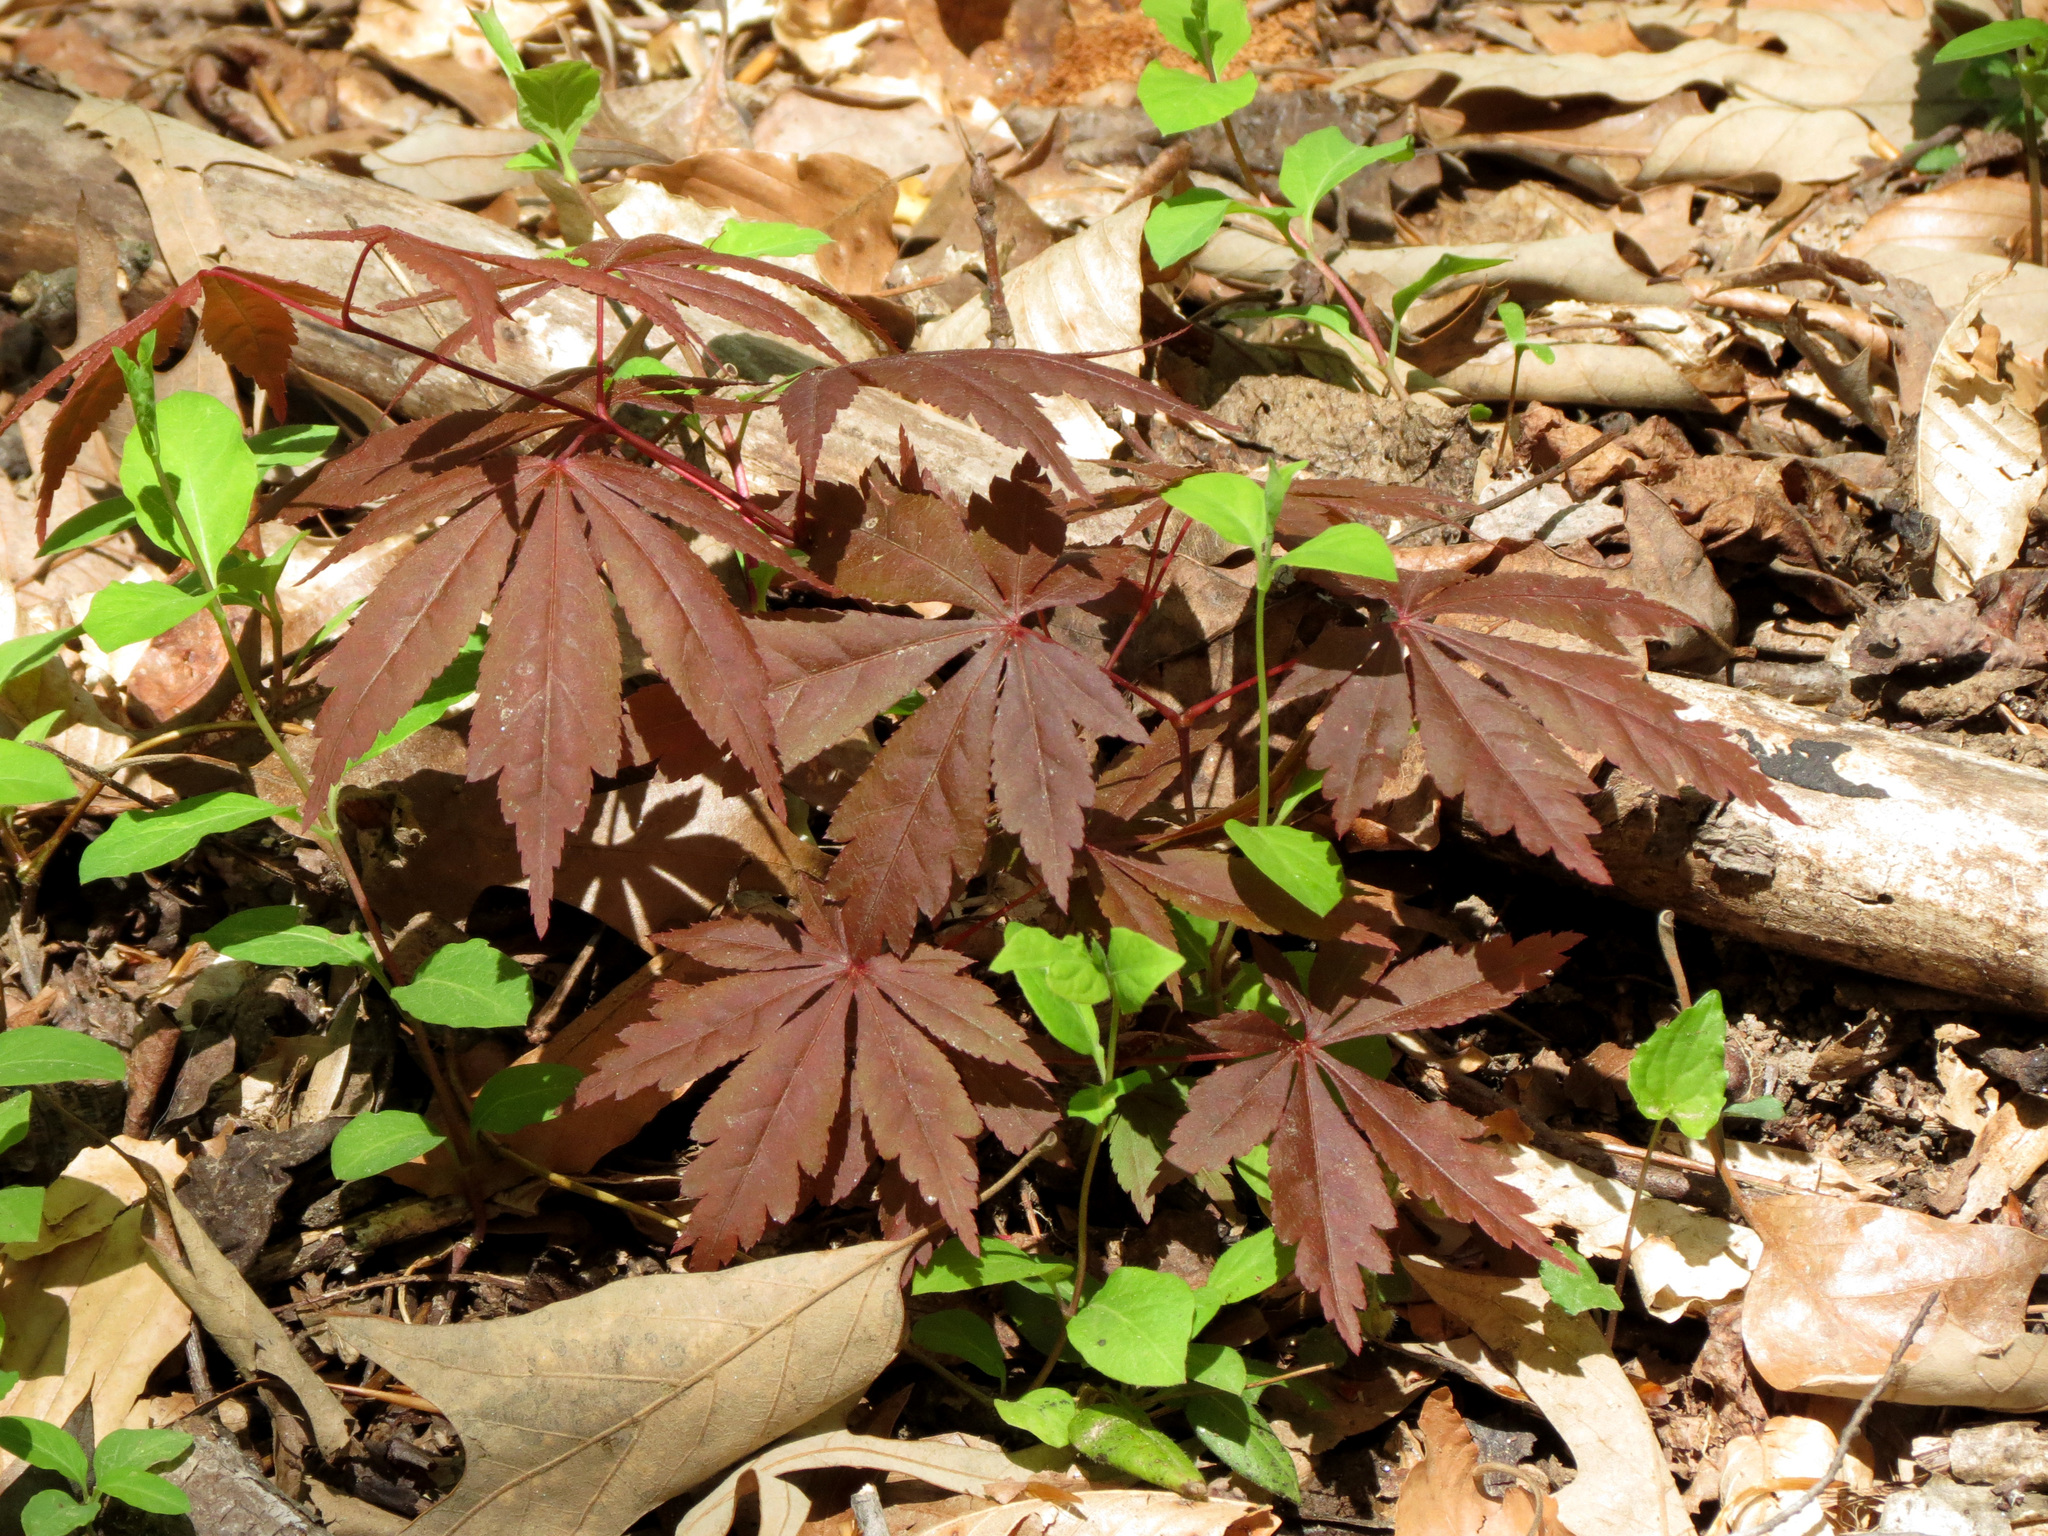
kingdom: Plantae
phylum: Tracheophyta
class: Magnoliopsida
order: Sapindales
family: Sapindaceae
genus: Acer
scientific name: Acer palmatum
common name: Japanese maple
